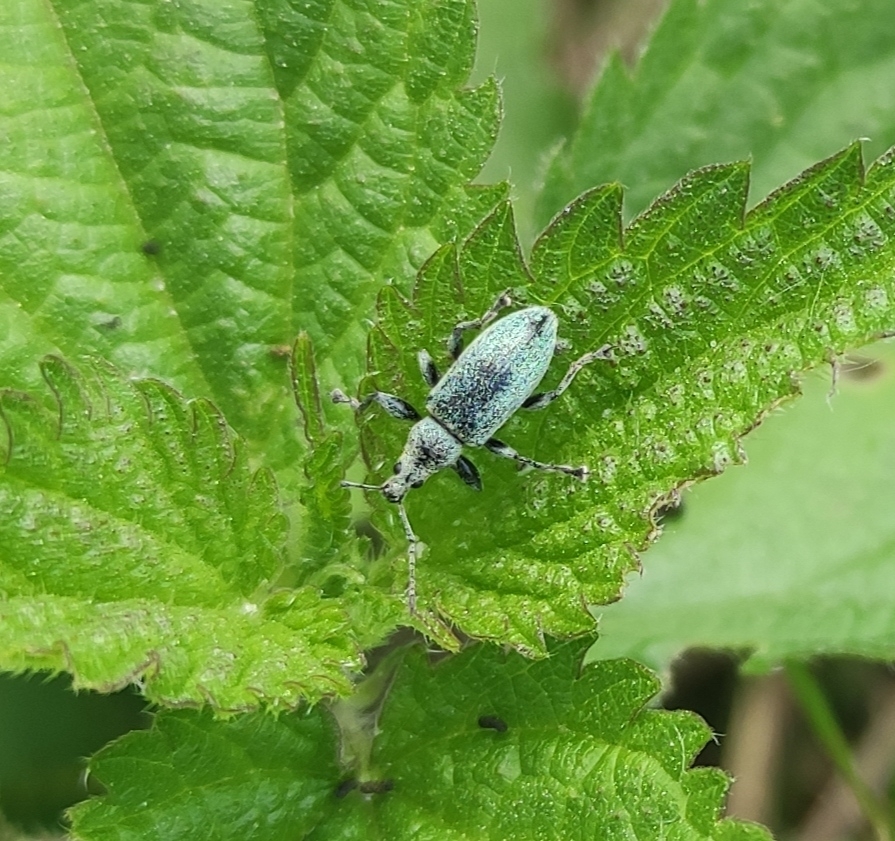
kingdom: Animalia
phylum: Arthropoda
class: Insecta
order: Coleoptera
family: Curculionidae
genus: Phyllobius
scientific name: Phyllobius pomaceus
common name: Green nettle weevil
